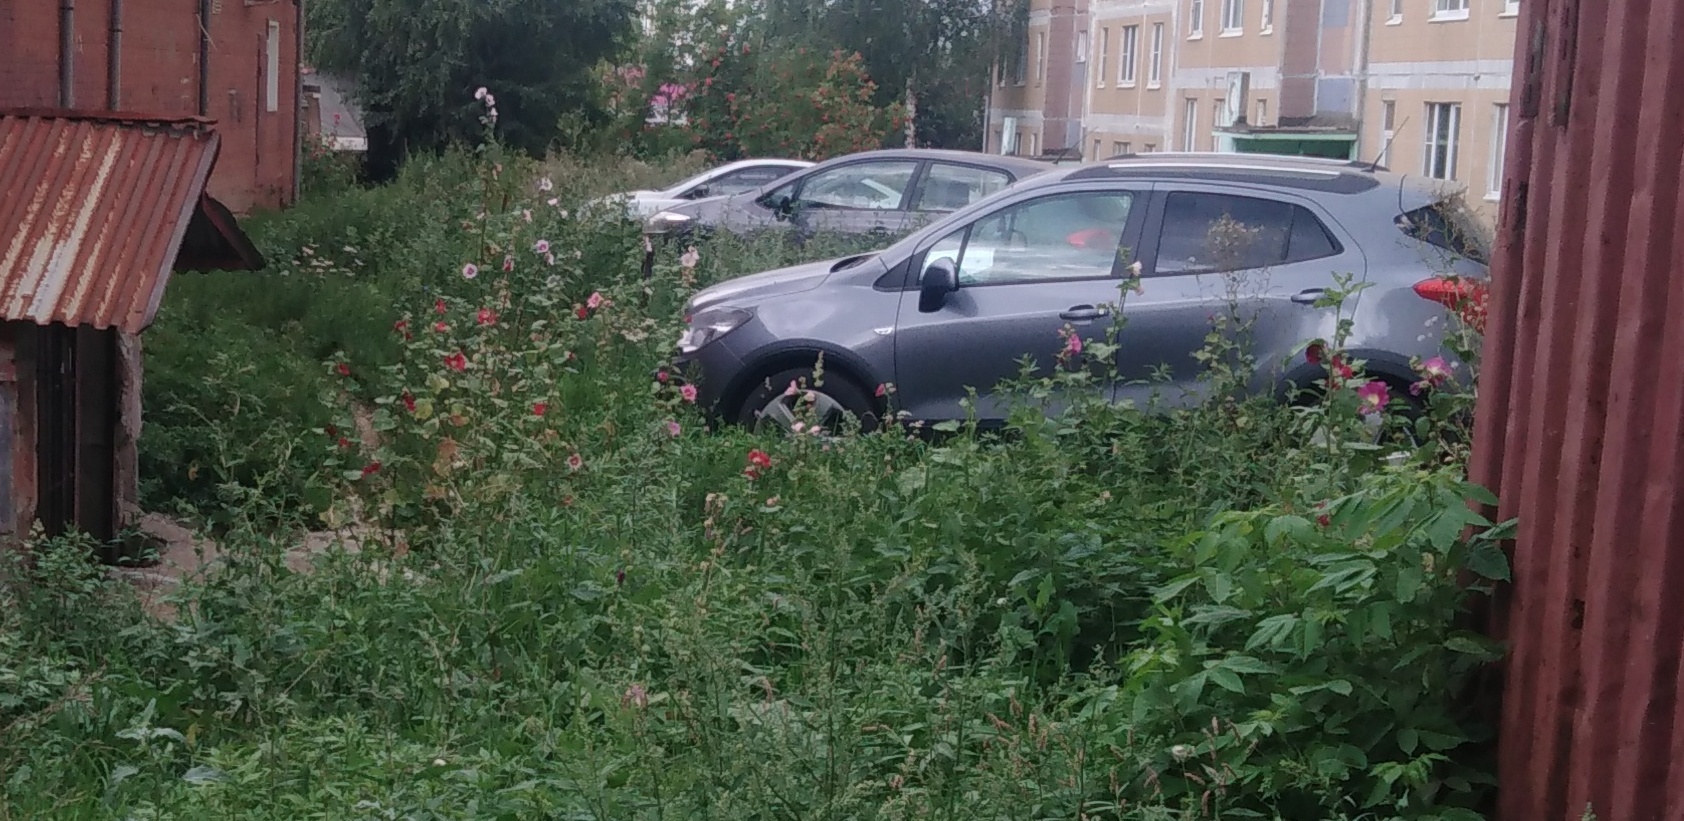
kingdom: Plantae
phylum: Tracheophyta
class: Magnoliopsida
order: Malvales
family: Malvaceae
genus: Alcea
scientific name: Alcea rosea
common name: Hollyhock
